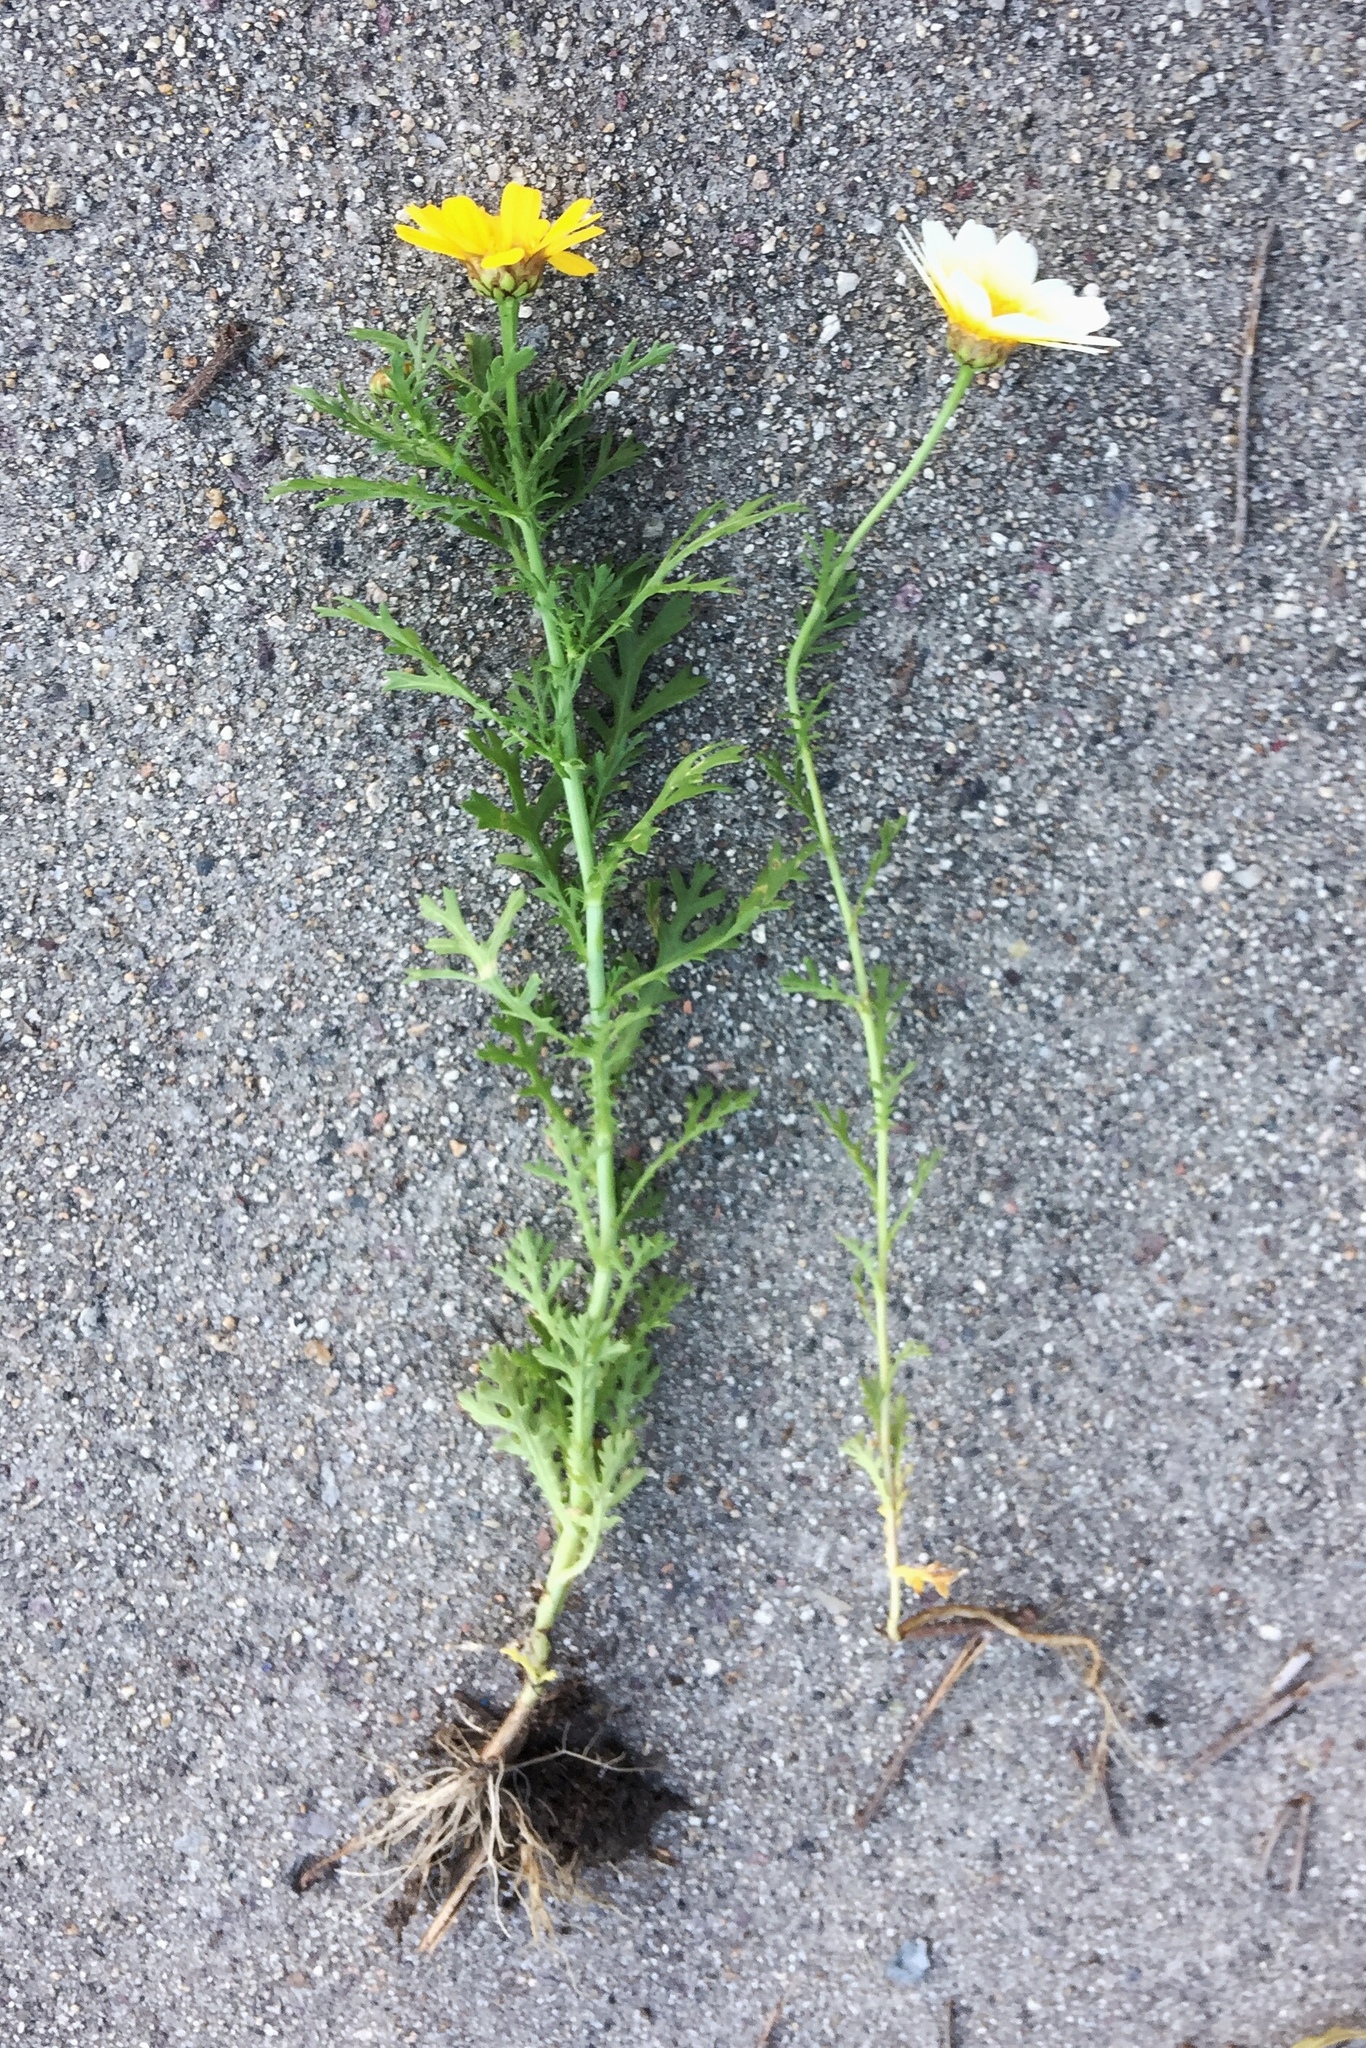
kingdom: Plantae
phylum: Tracheophyta
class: Magnoliopsida
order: Asterales
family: Asteraceae
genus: Glebionis
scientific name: Glebionis coronaria
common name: Crowndaisy
